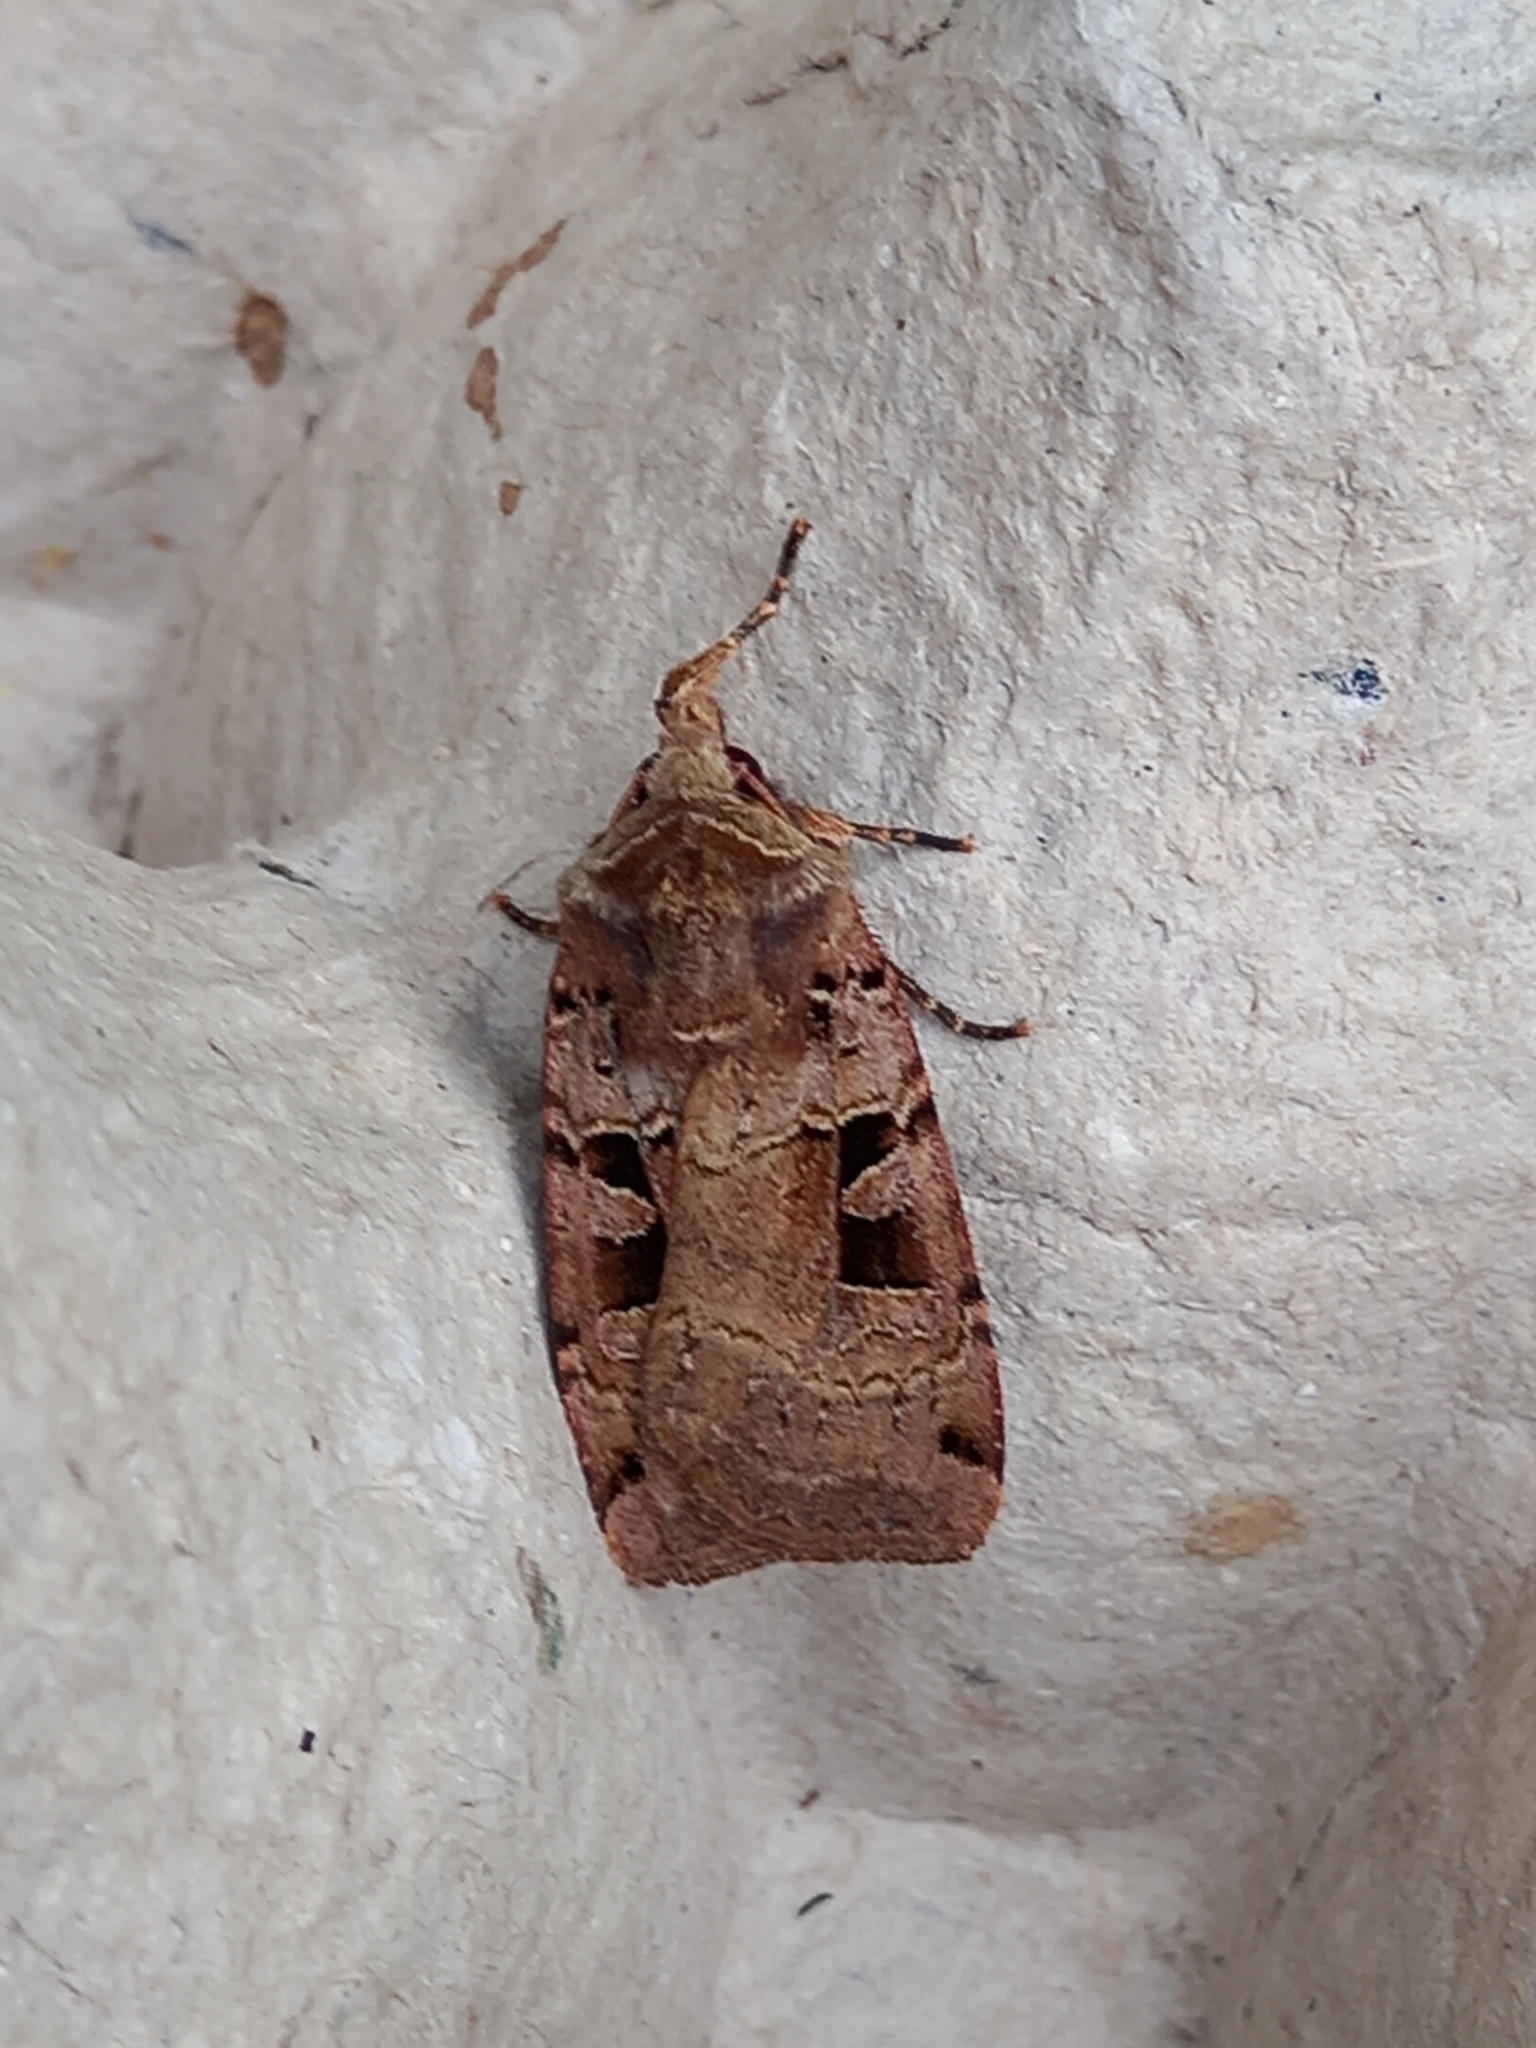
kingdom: Animalia
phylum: Arthropoda
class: Insecta
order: Lepidoptera
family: Noctuidae
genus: Xestia
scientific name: Xestia triangulum
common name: Double square-spot
